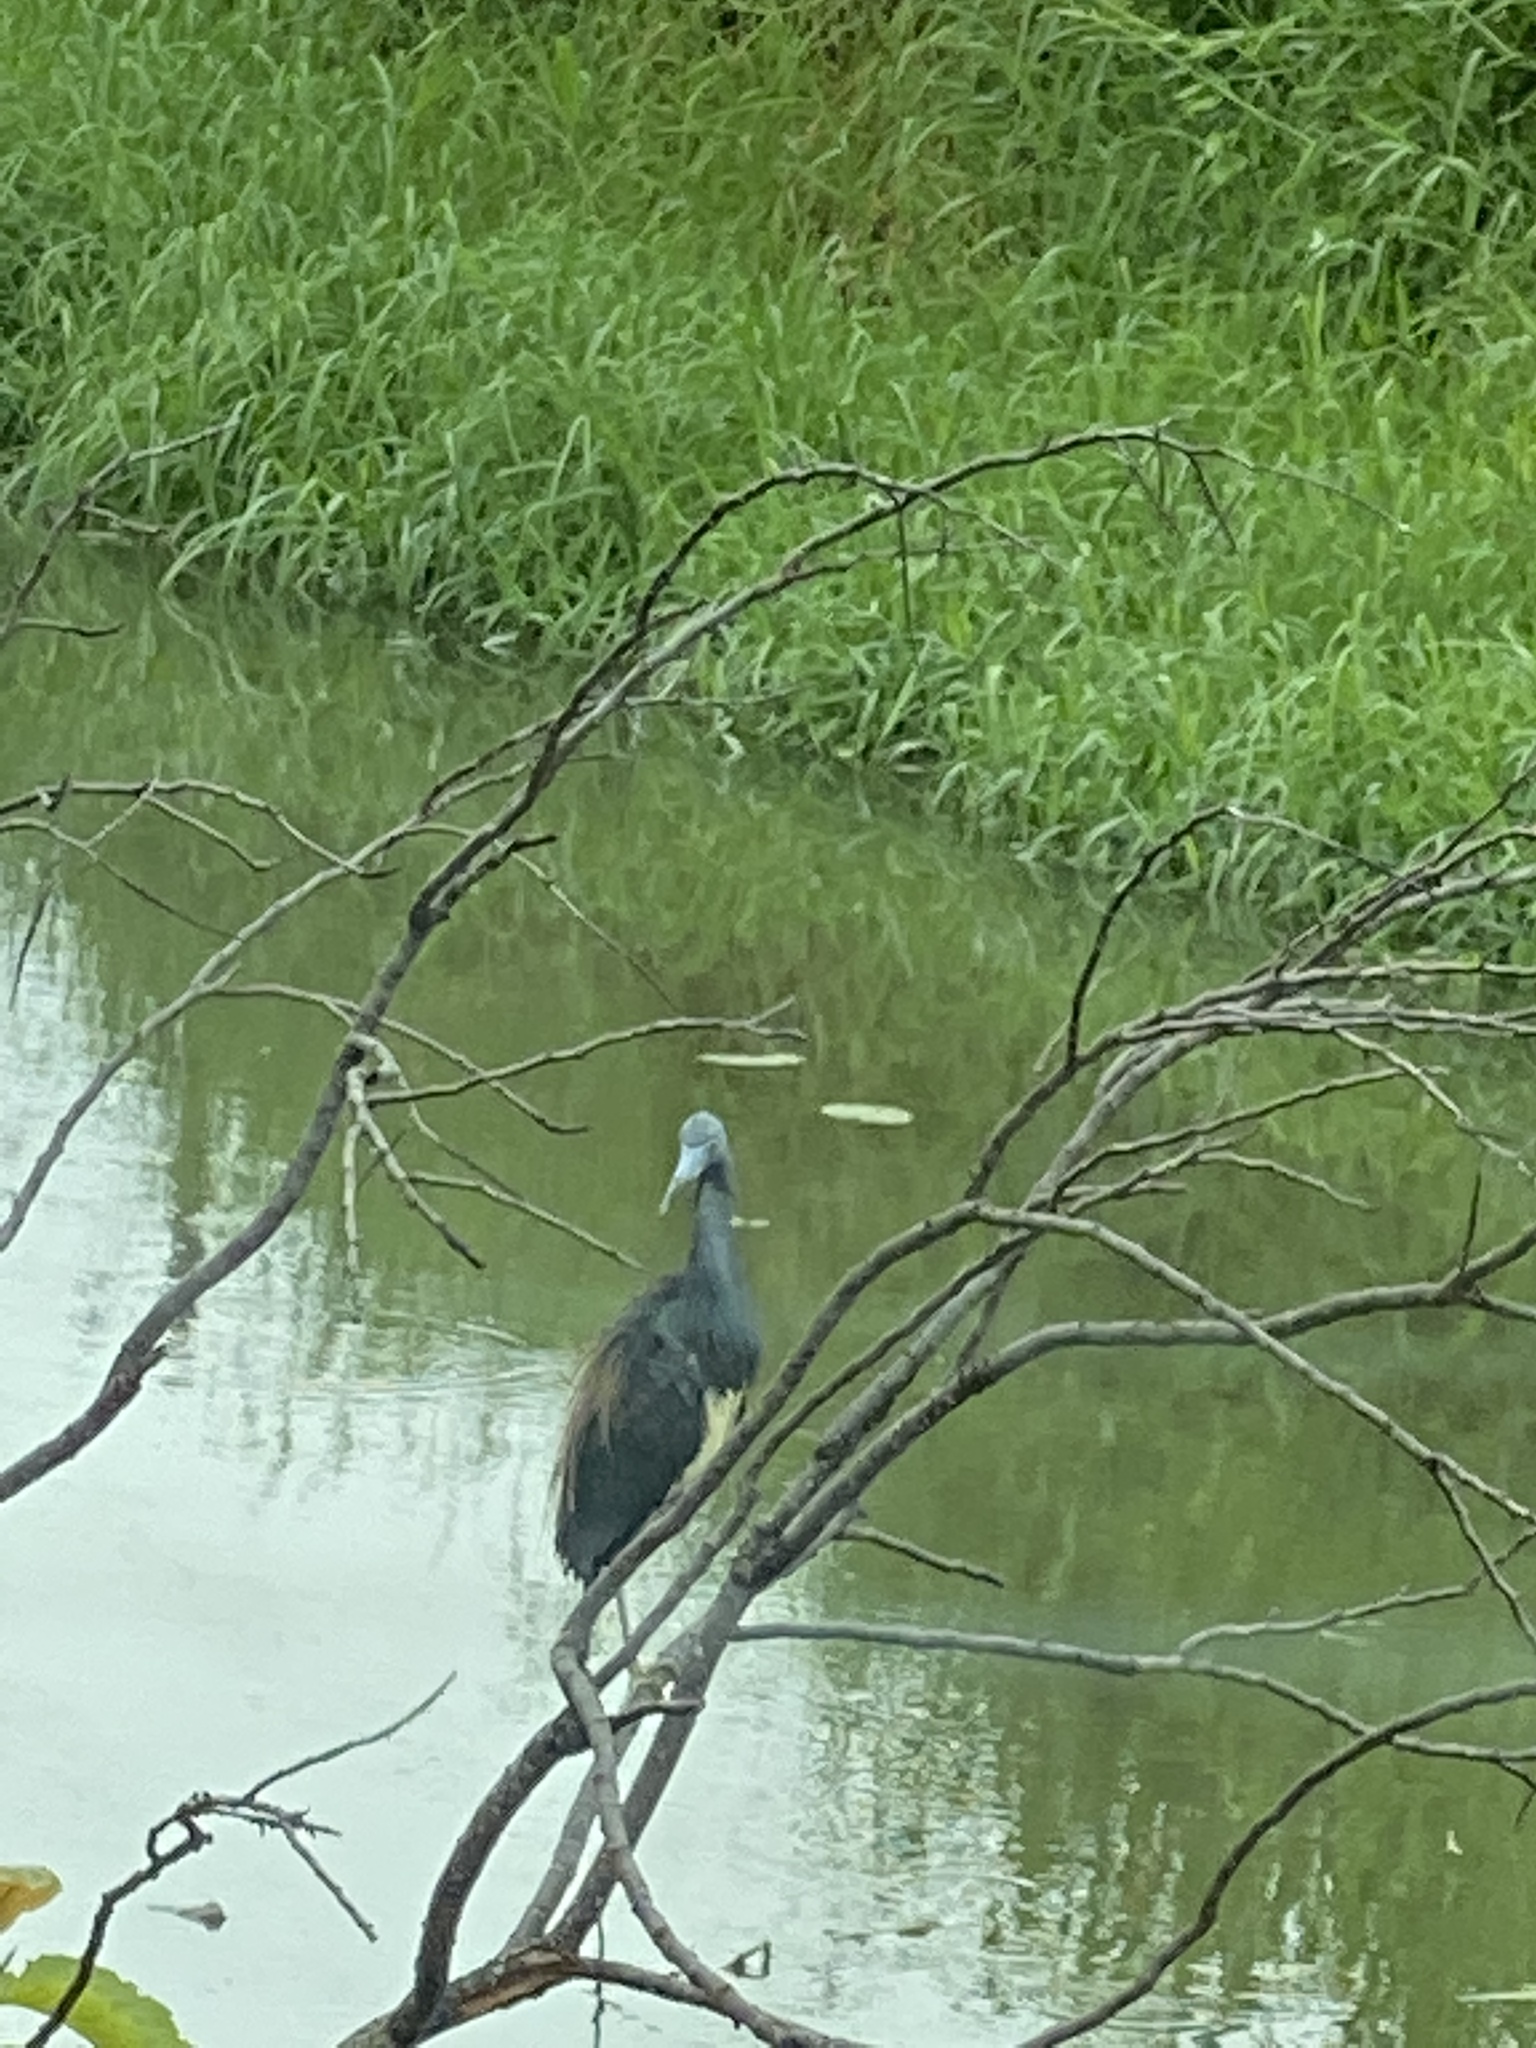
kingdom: Animalia
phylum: Chordata
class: Aves
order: Pelecaniformes
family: Ardeidae
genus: Egretta
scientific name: Egretta tricolor
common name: Tricolored heron
